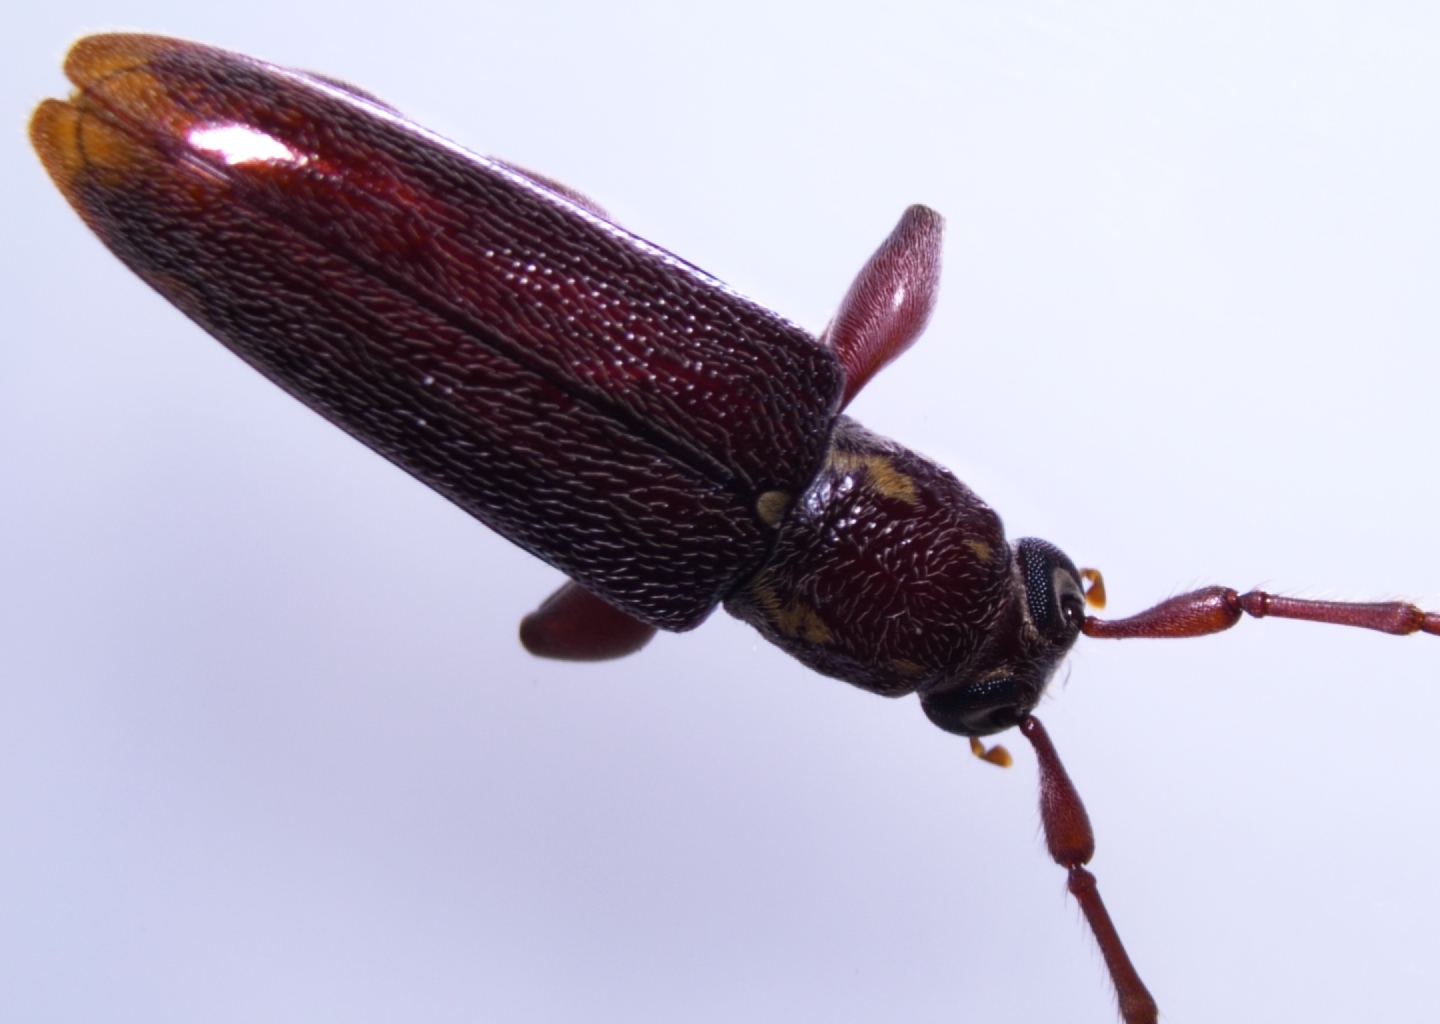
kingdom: Animalia
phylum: Arthropoda
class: Insecta
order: Coleoptera
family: Cerambycidae
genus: Ceresium
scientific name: Ceresium unicolor
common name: Citrus longhorn
